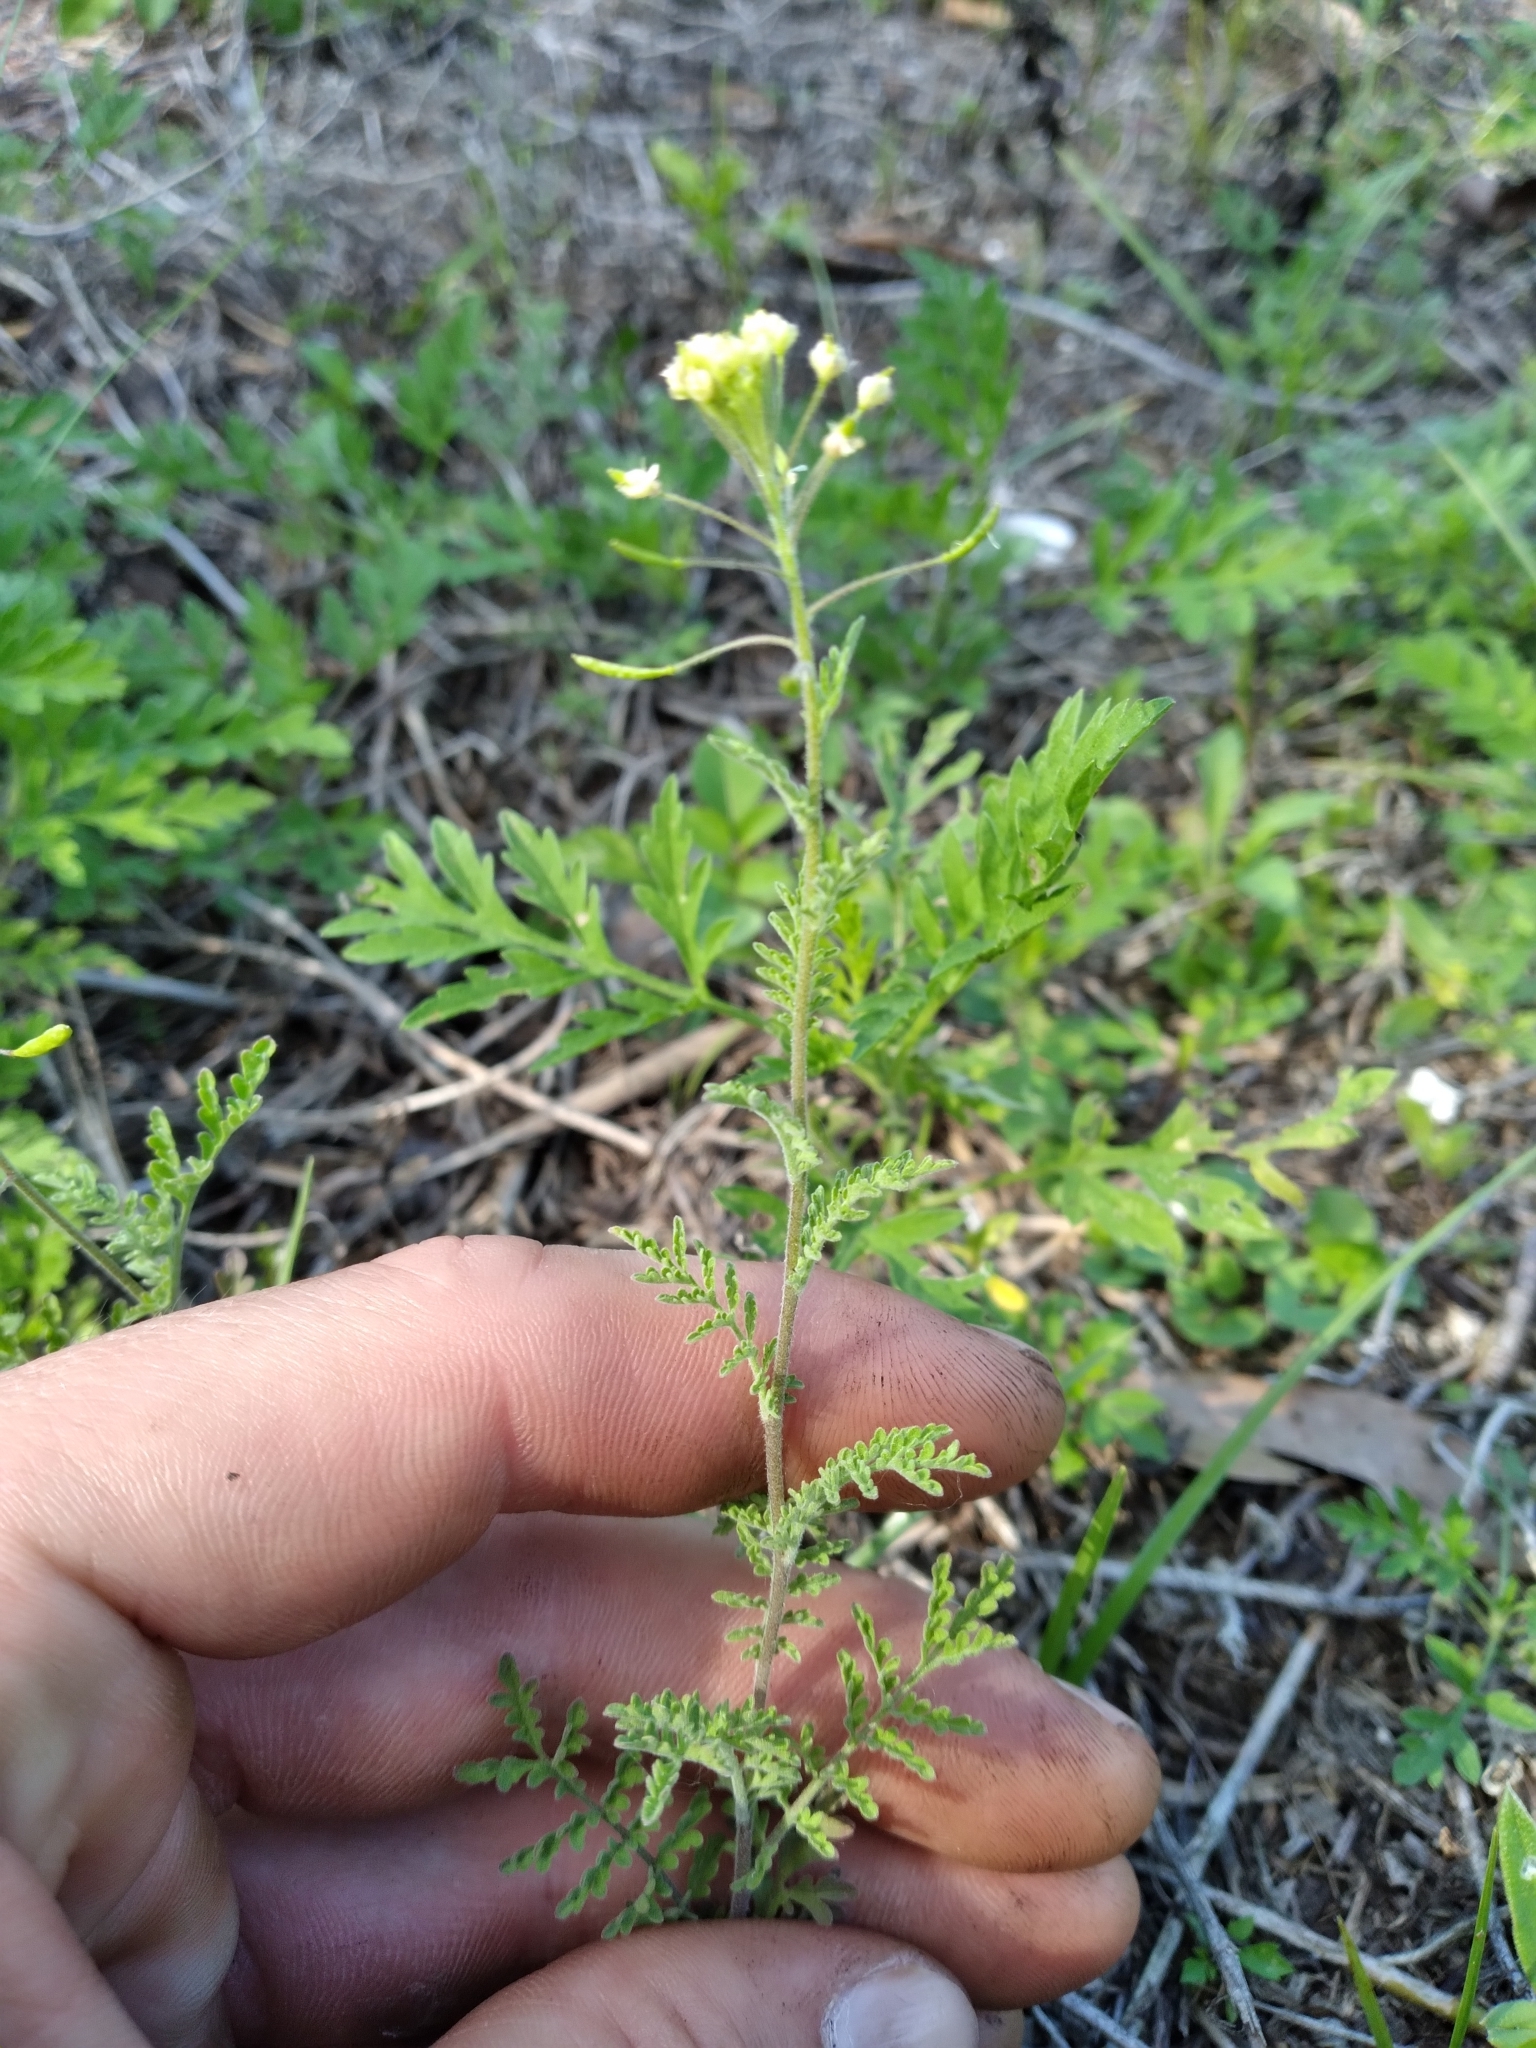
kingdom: Plantae
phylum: Tracheophyta
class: Magnoliopsida
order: Brassicales
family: Brassicaceae
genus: Descurainia
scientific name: Descurainia pinnata
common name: Western tansy mustard
